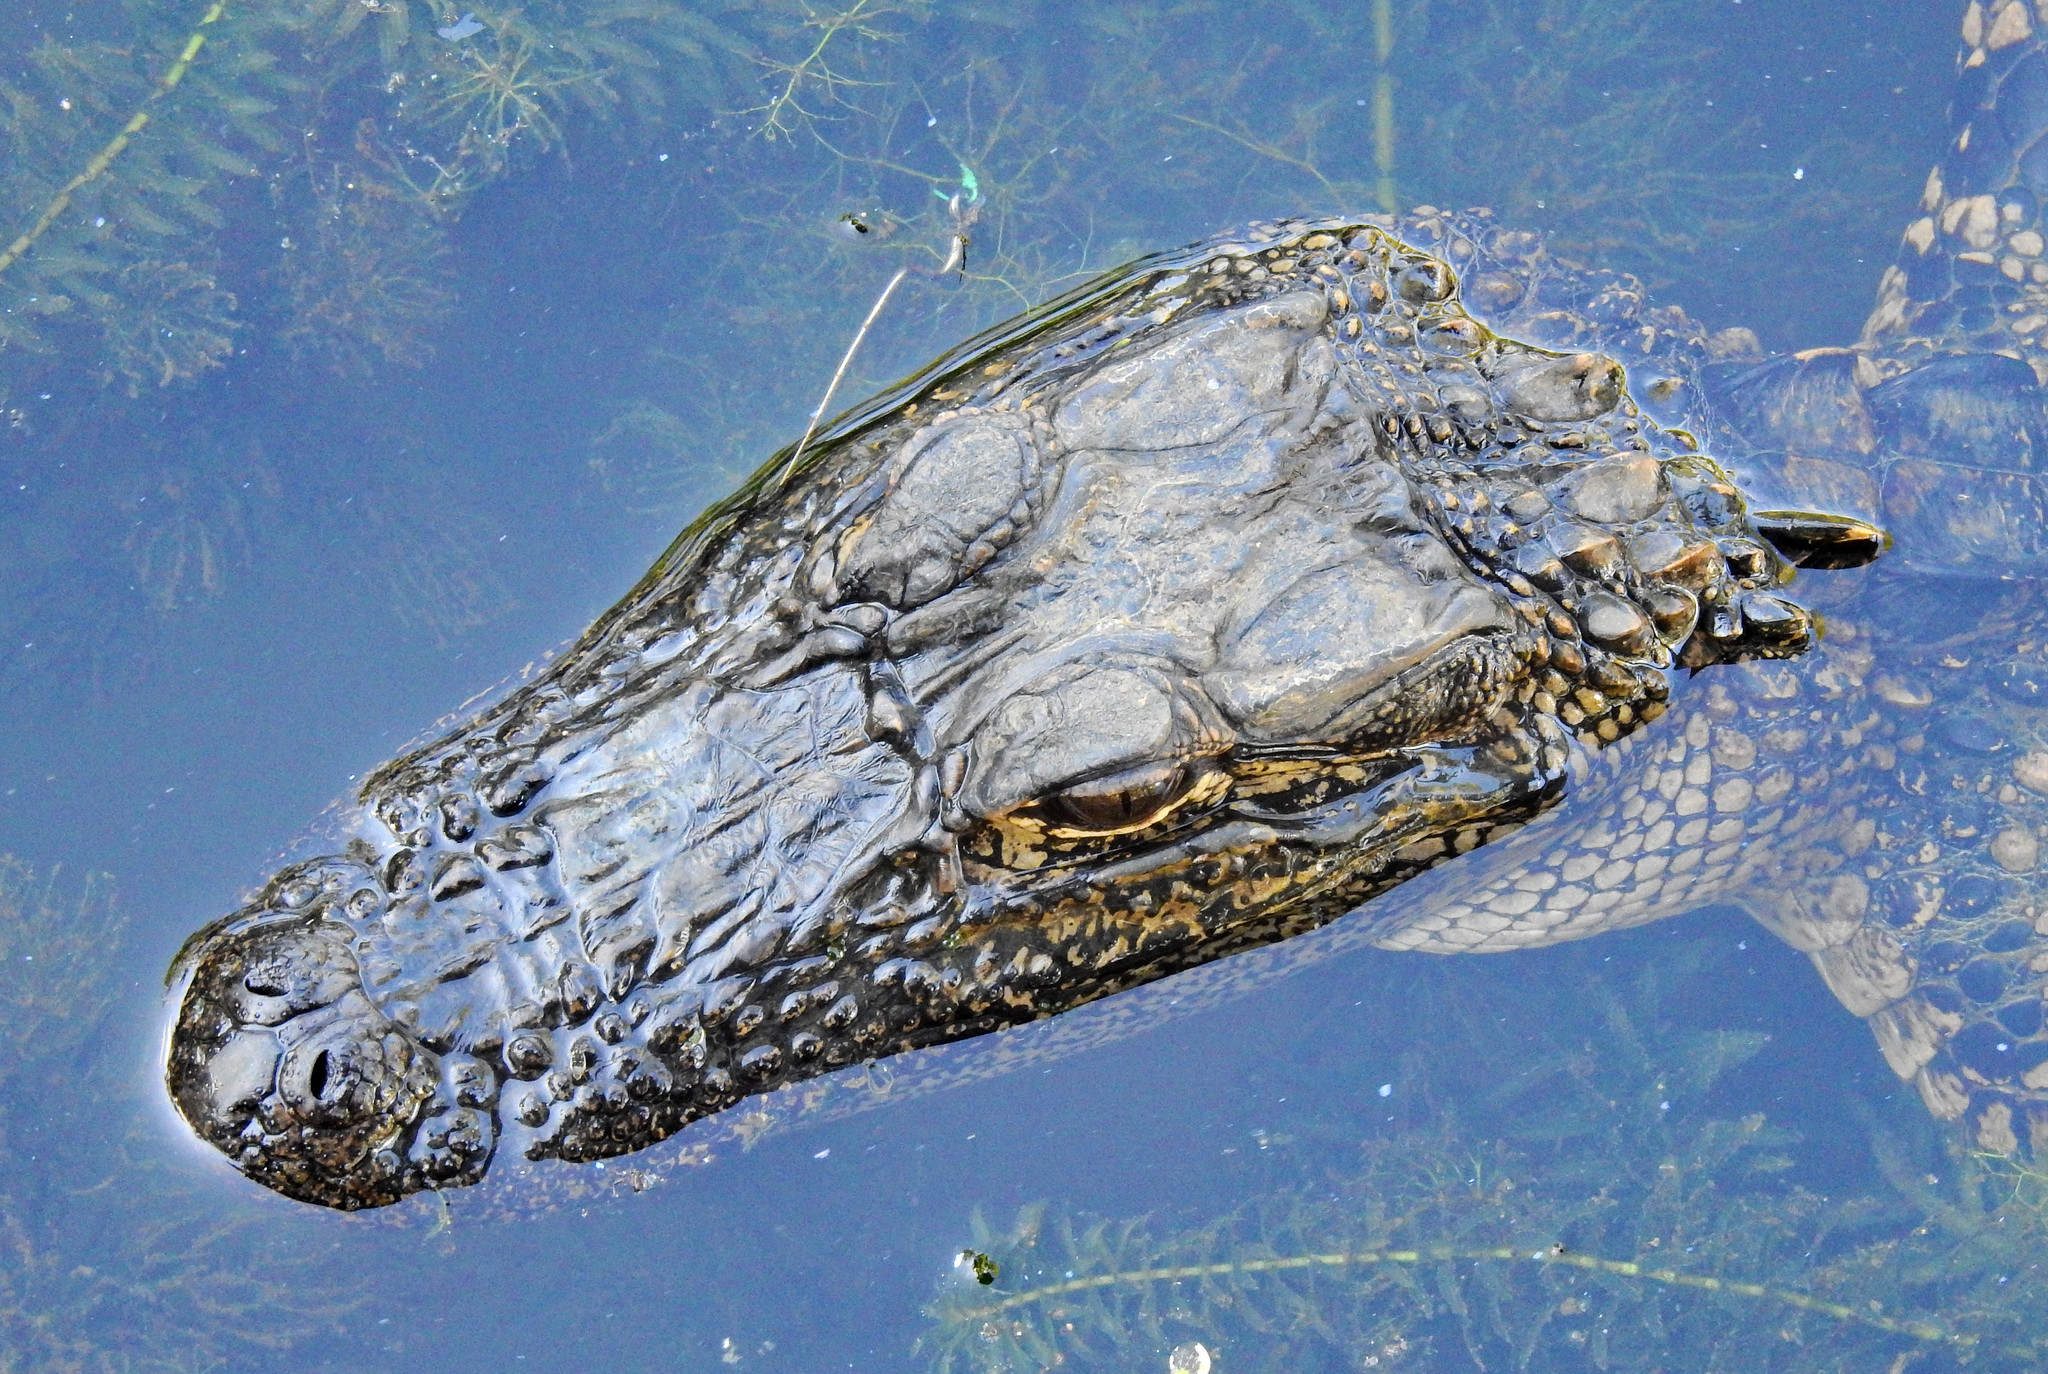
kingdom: Animalia
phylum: Chordata
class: Crocodylia
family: Alligatoridae
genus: Alligator
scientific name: Alligator mississippiensis
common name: American alligator
